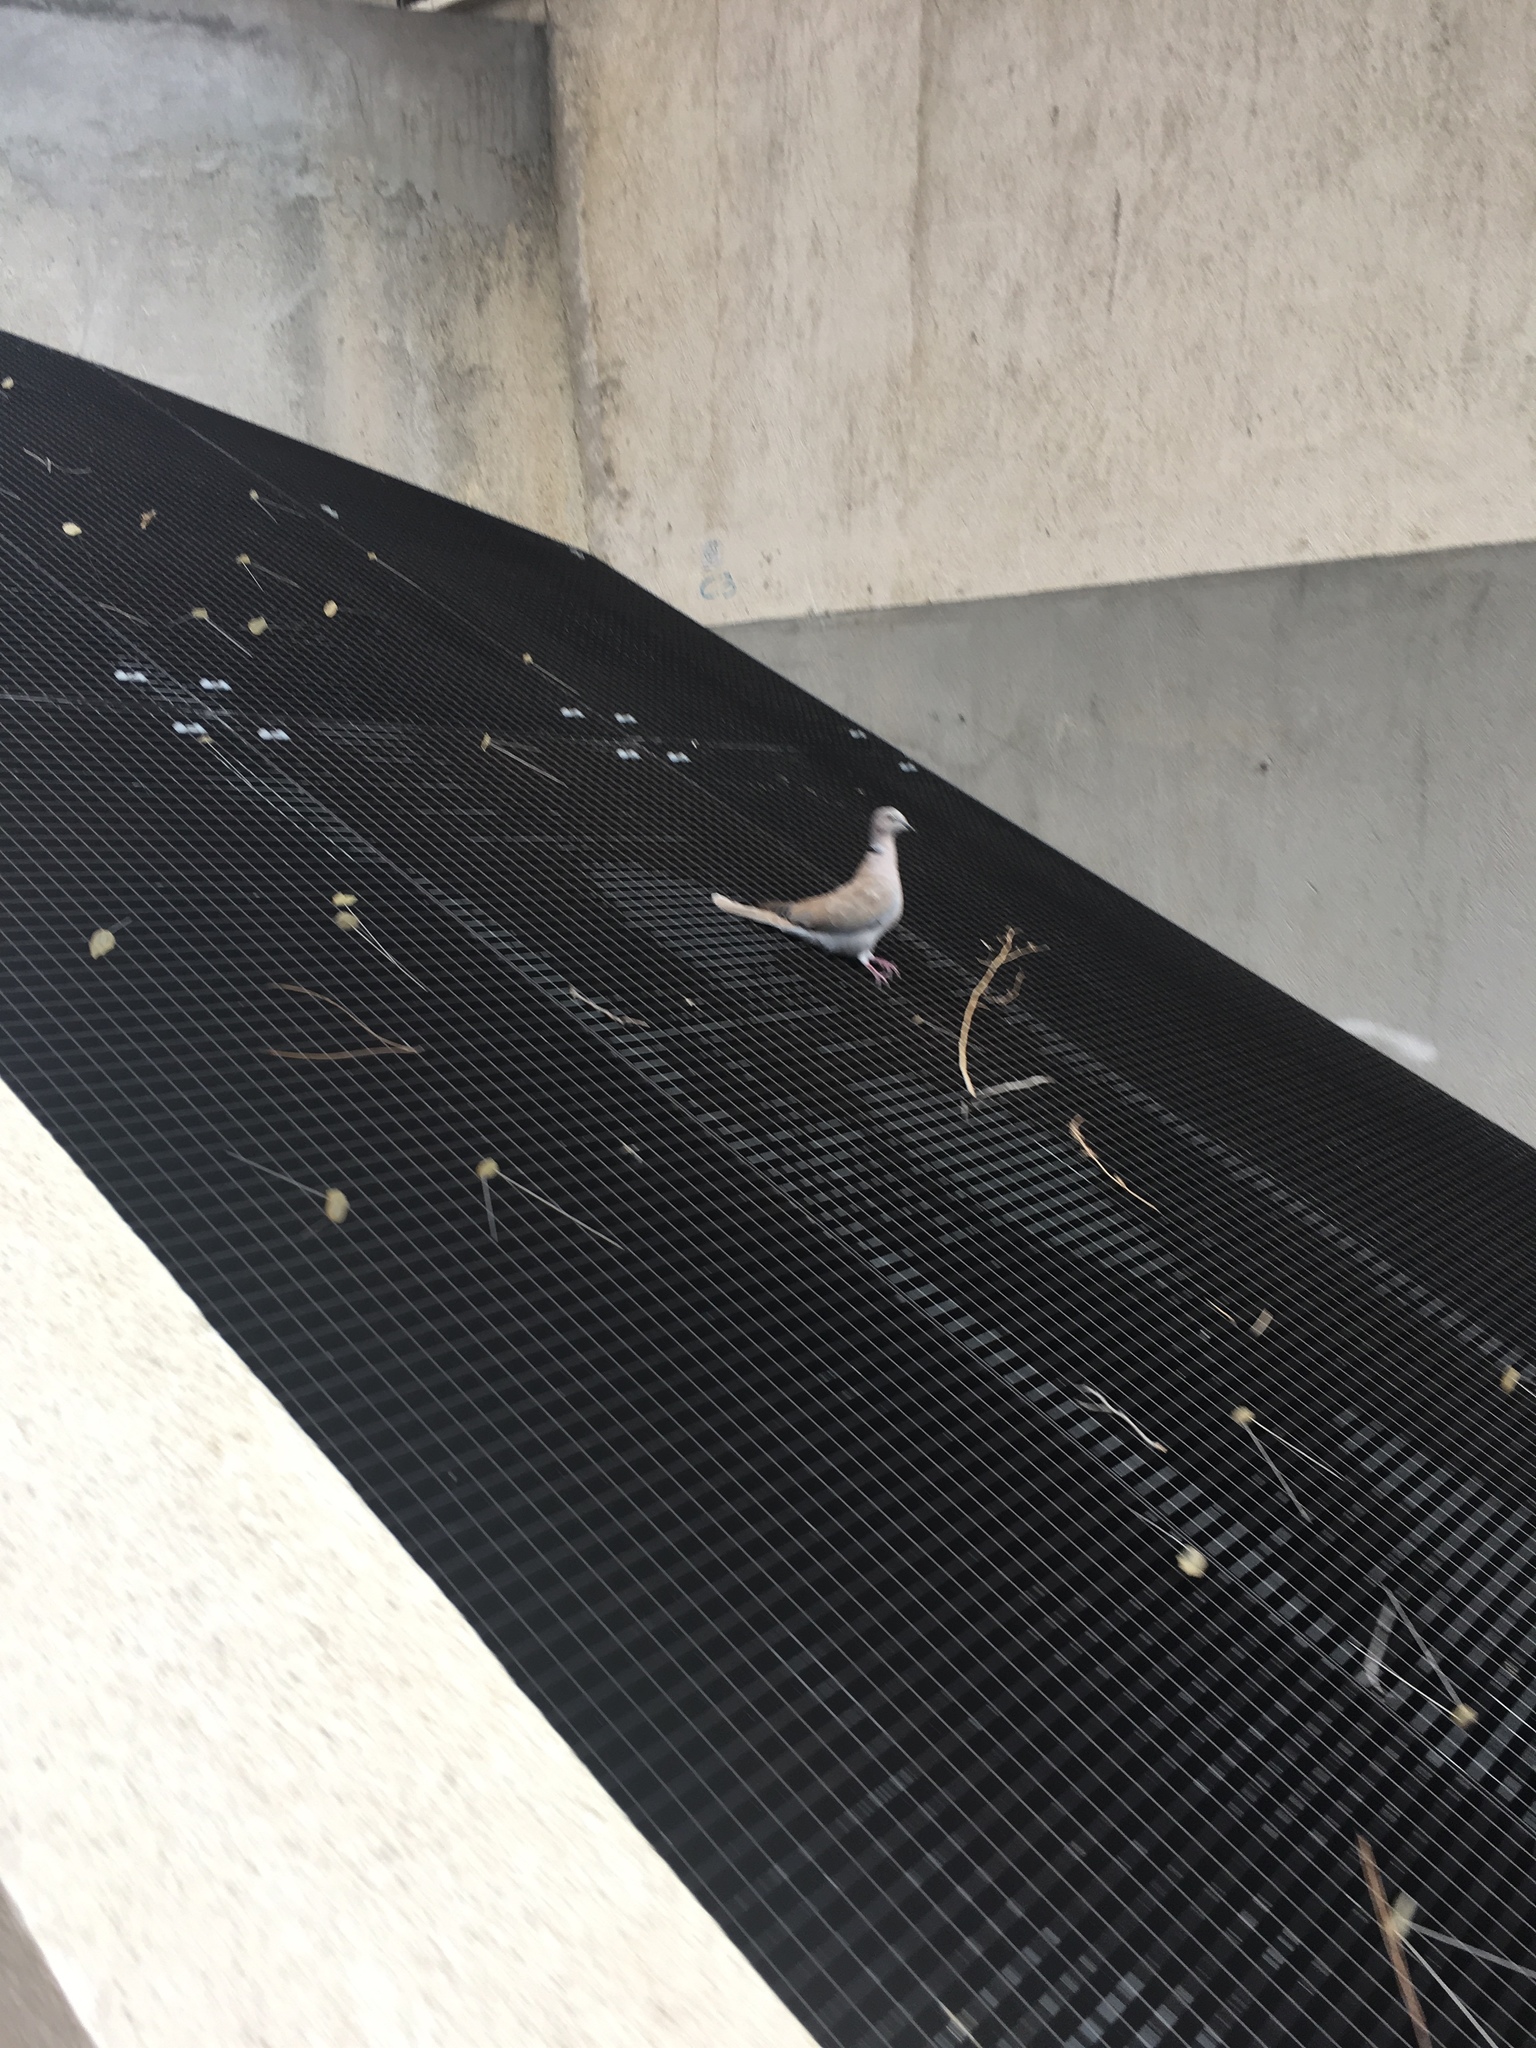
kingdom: Animalia
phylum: Chordata
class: Aves
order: Columbiformes
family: Columbidae
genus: Streptopelia
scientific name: Streptopelia decaocto
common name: Eurasian collared dove
